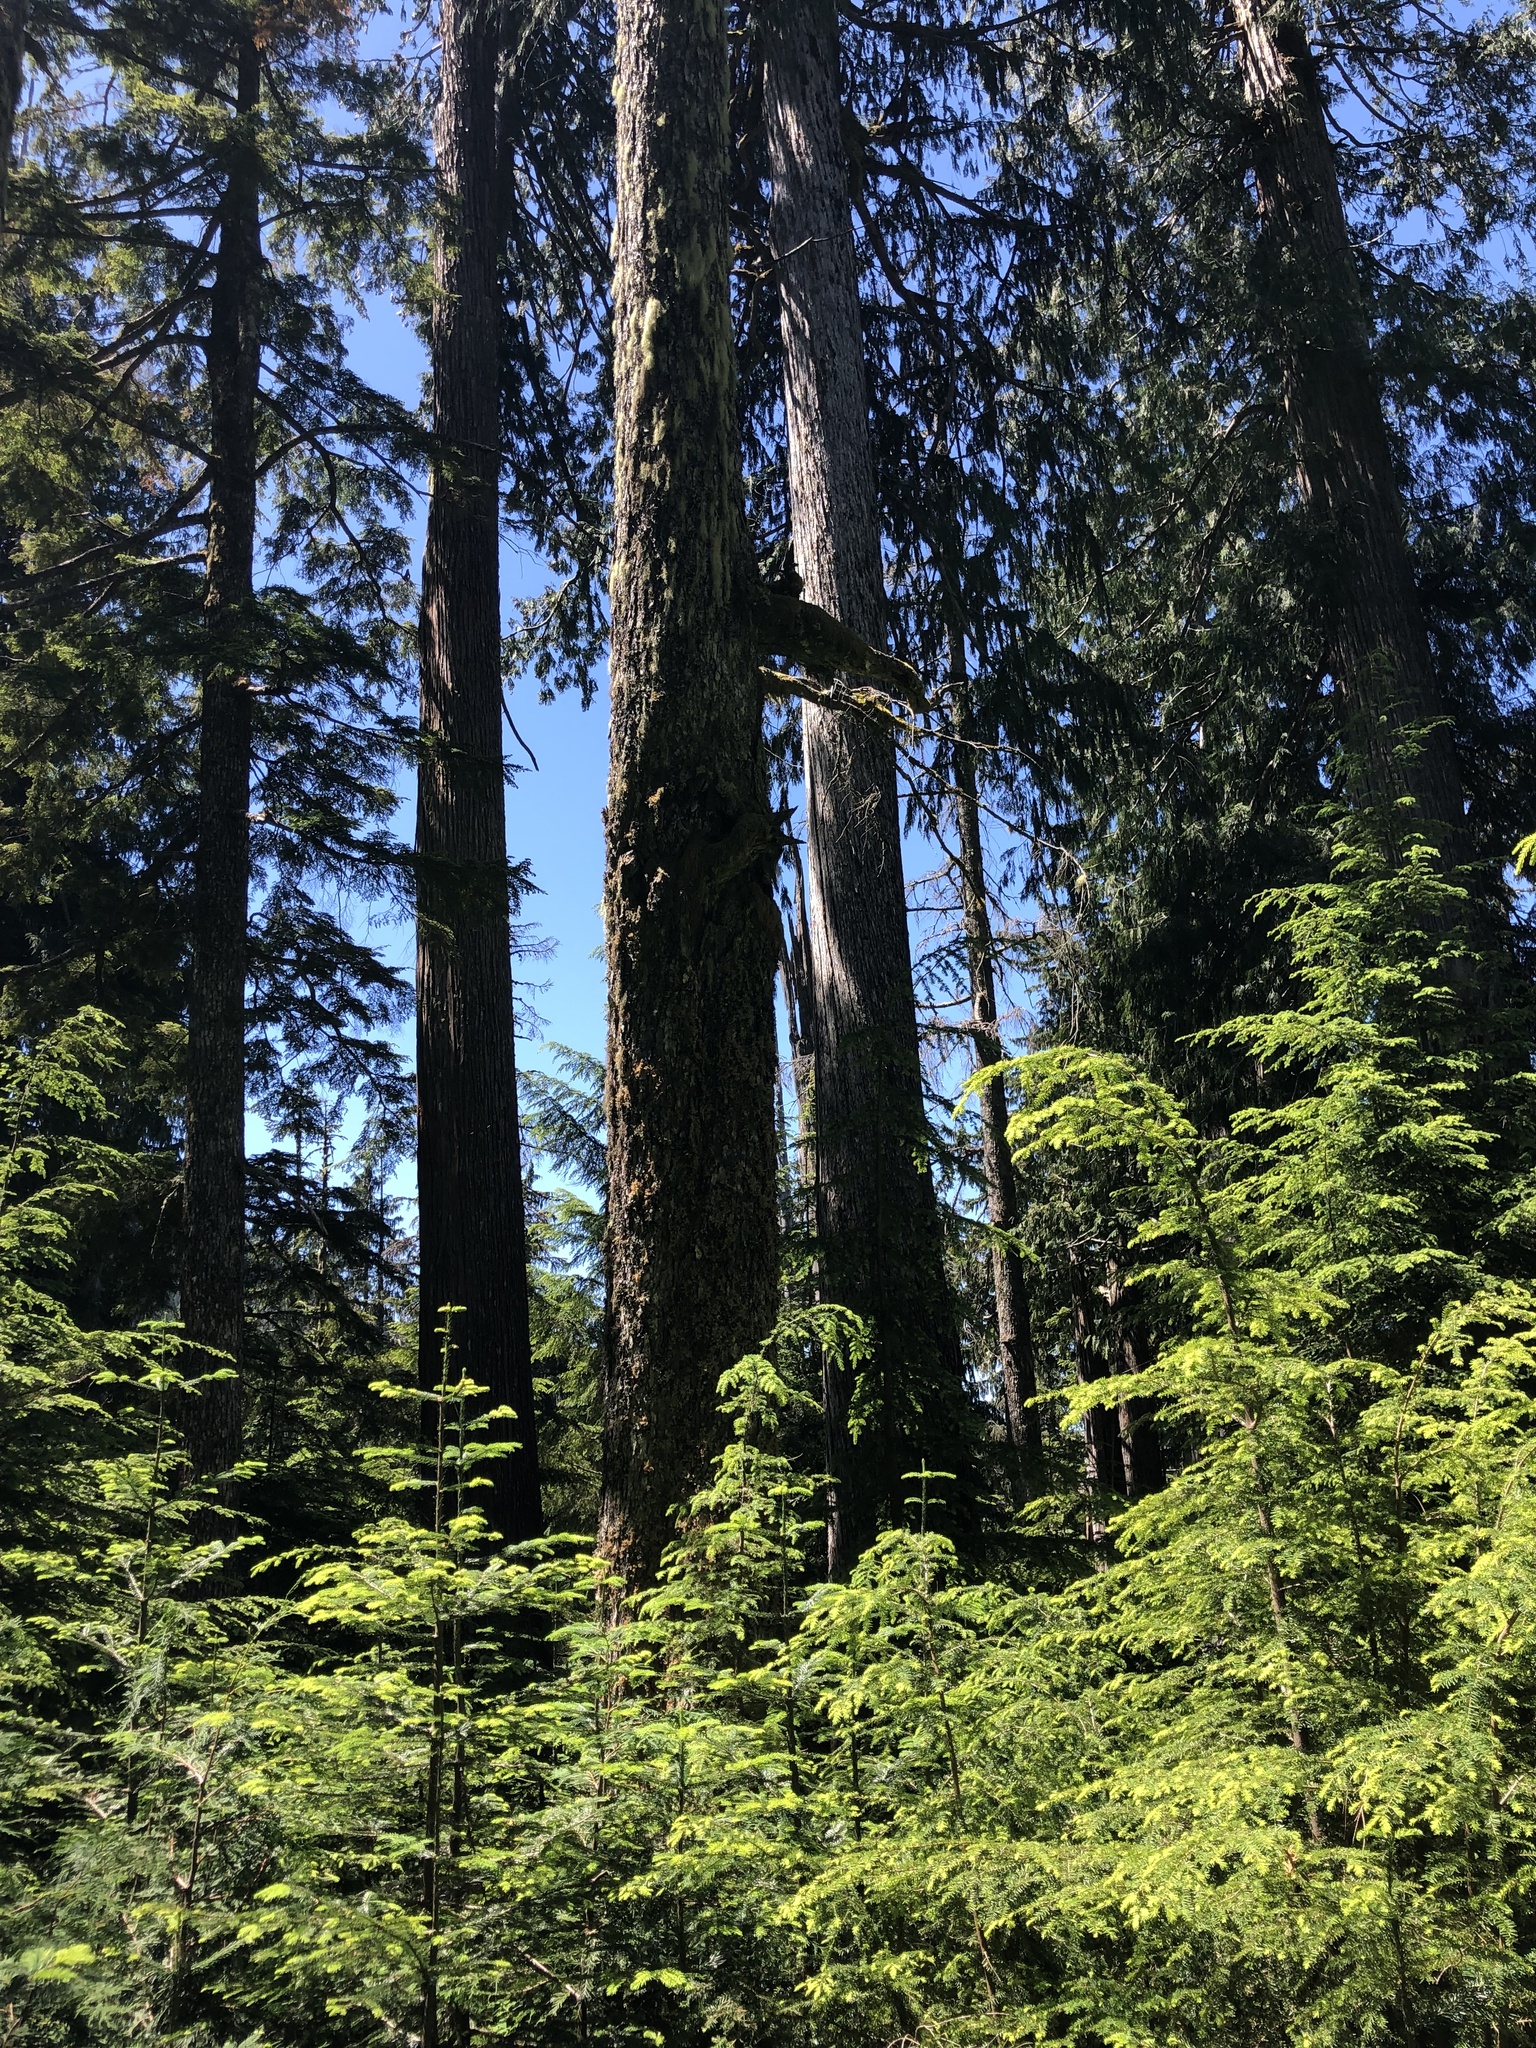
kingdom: Plantae
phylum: Tracheophyta
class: Pinopsida
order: Pinales
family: Cupressaceae
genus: Xanthocyparis
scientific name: Xanthocyparis nootkatensis
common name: Nootka cypress
